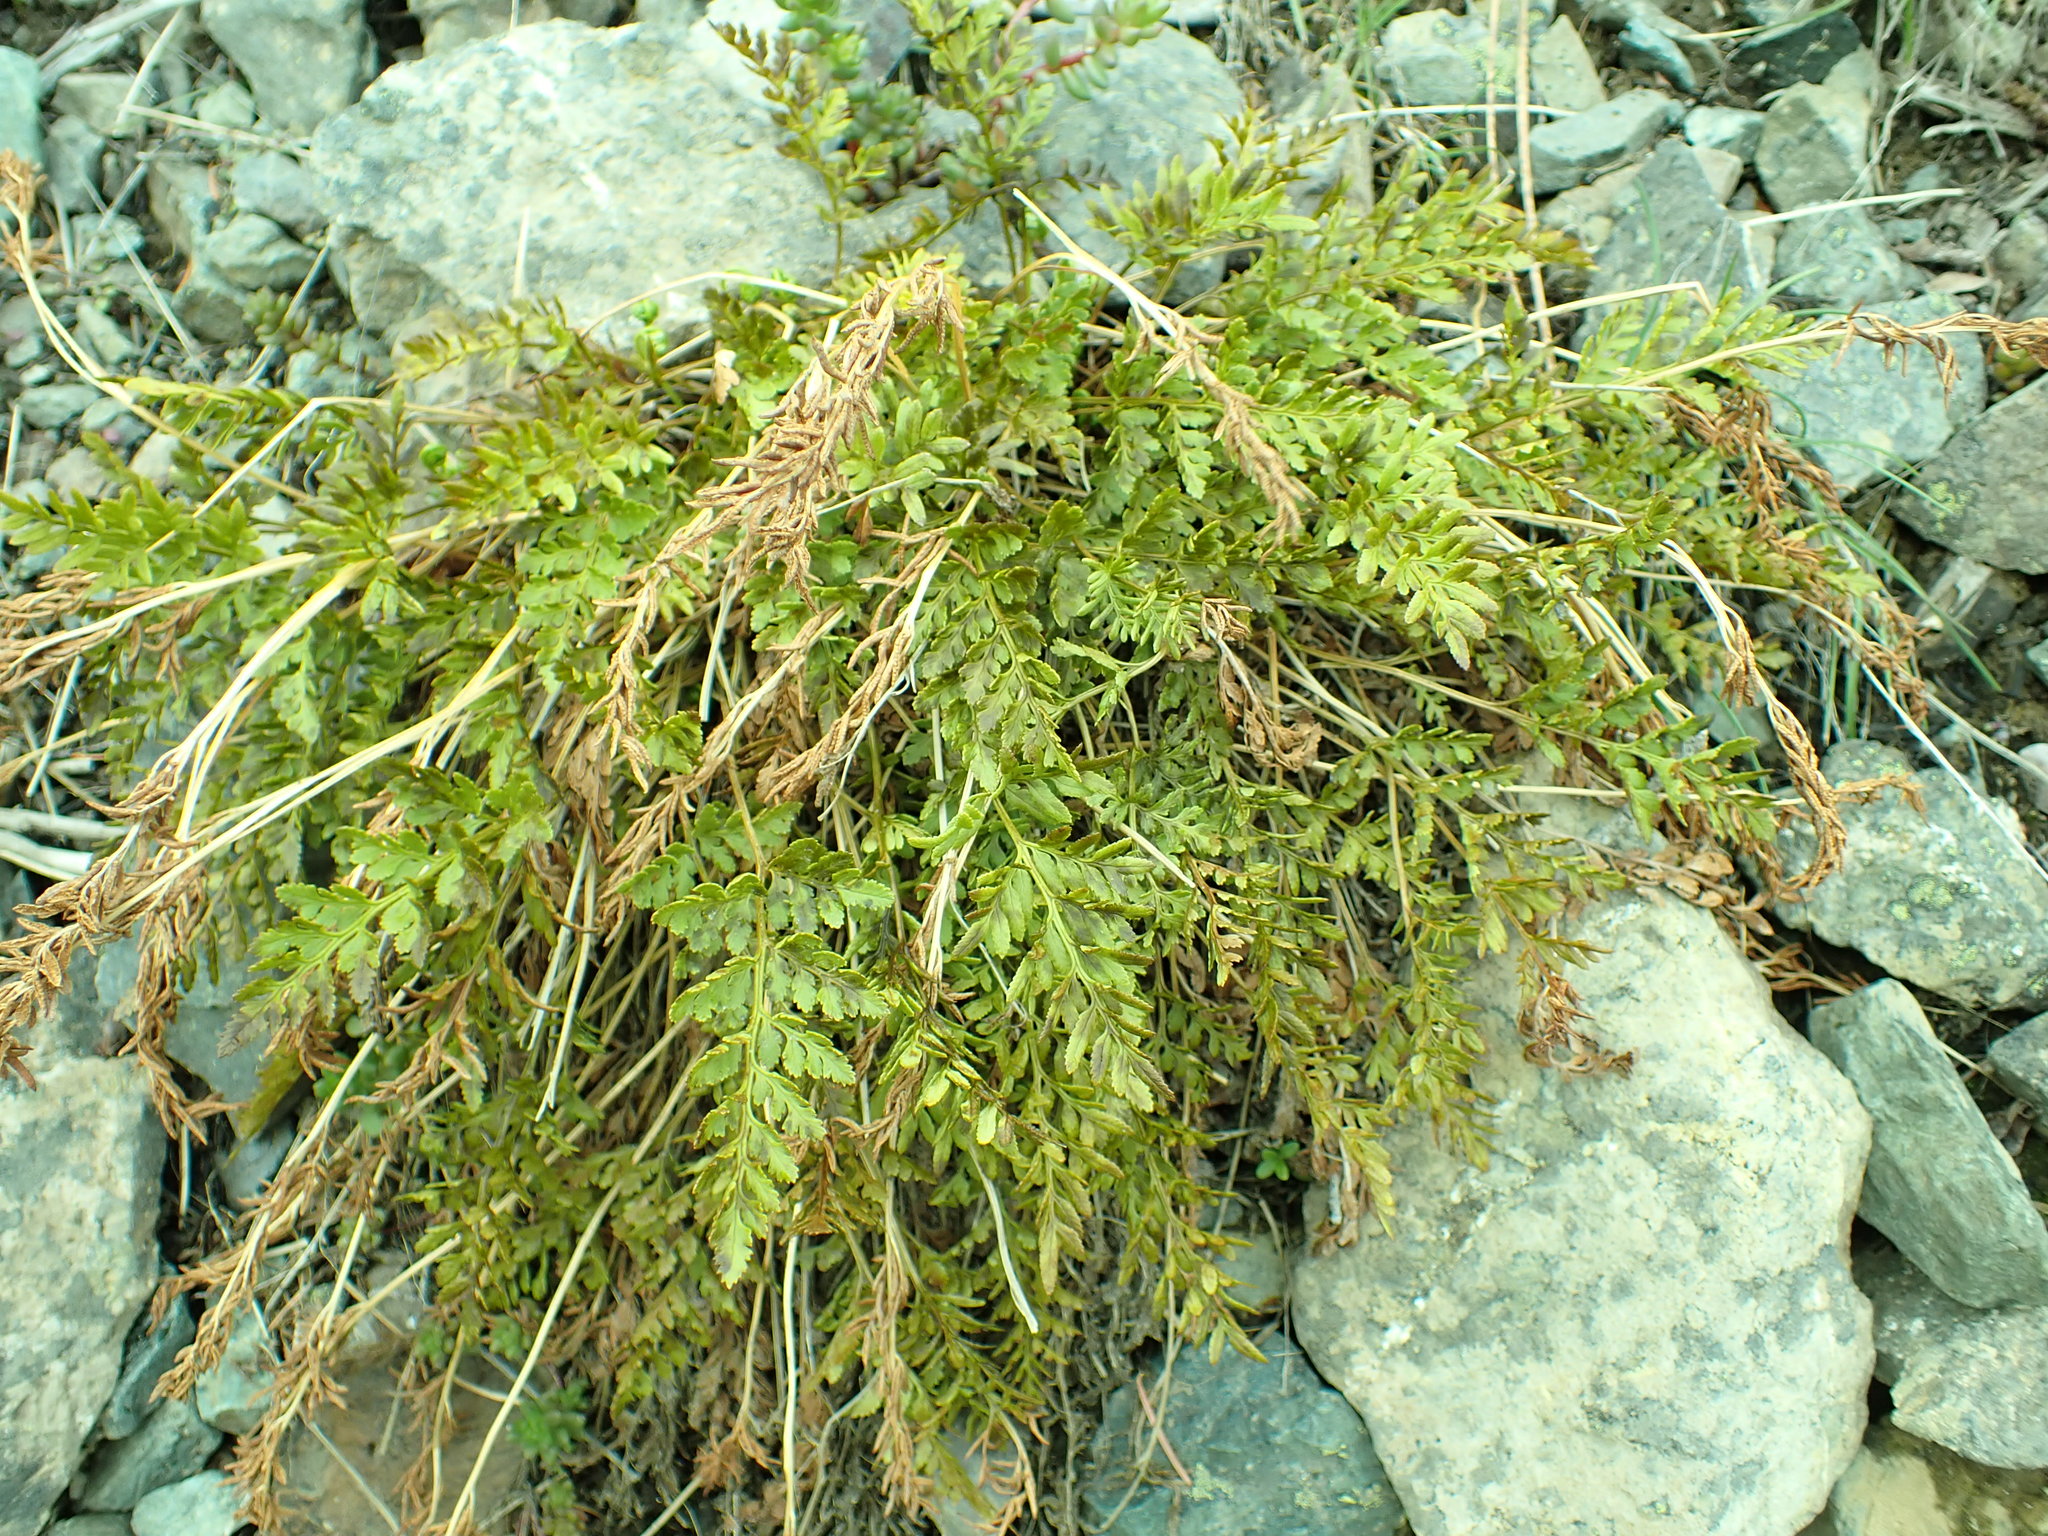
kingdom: Plantae
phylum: Tracheophyta
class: Polypodiopsida
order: Polypodiales
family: Pteridaceae
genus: Cryptogramma
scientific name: Cryptogramma acrostichoides
